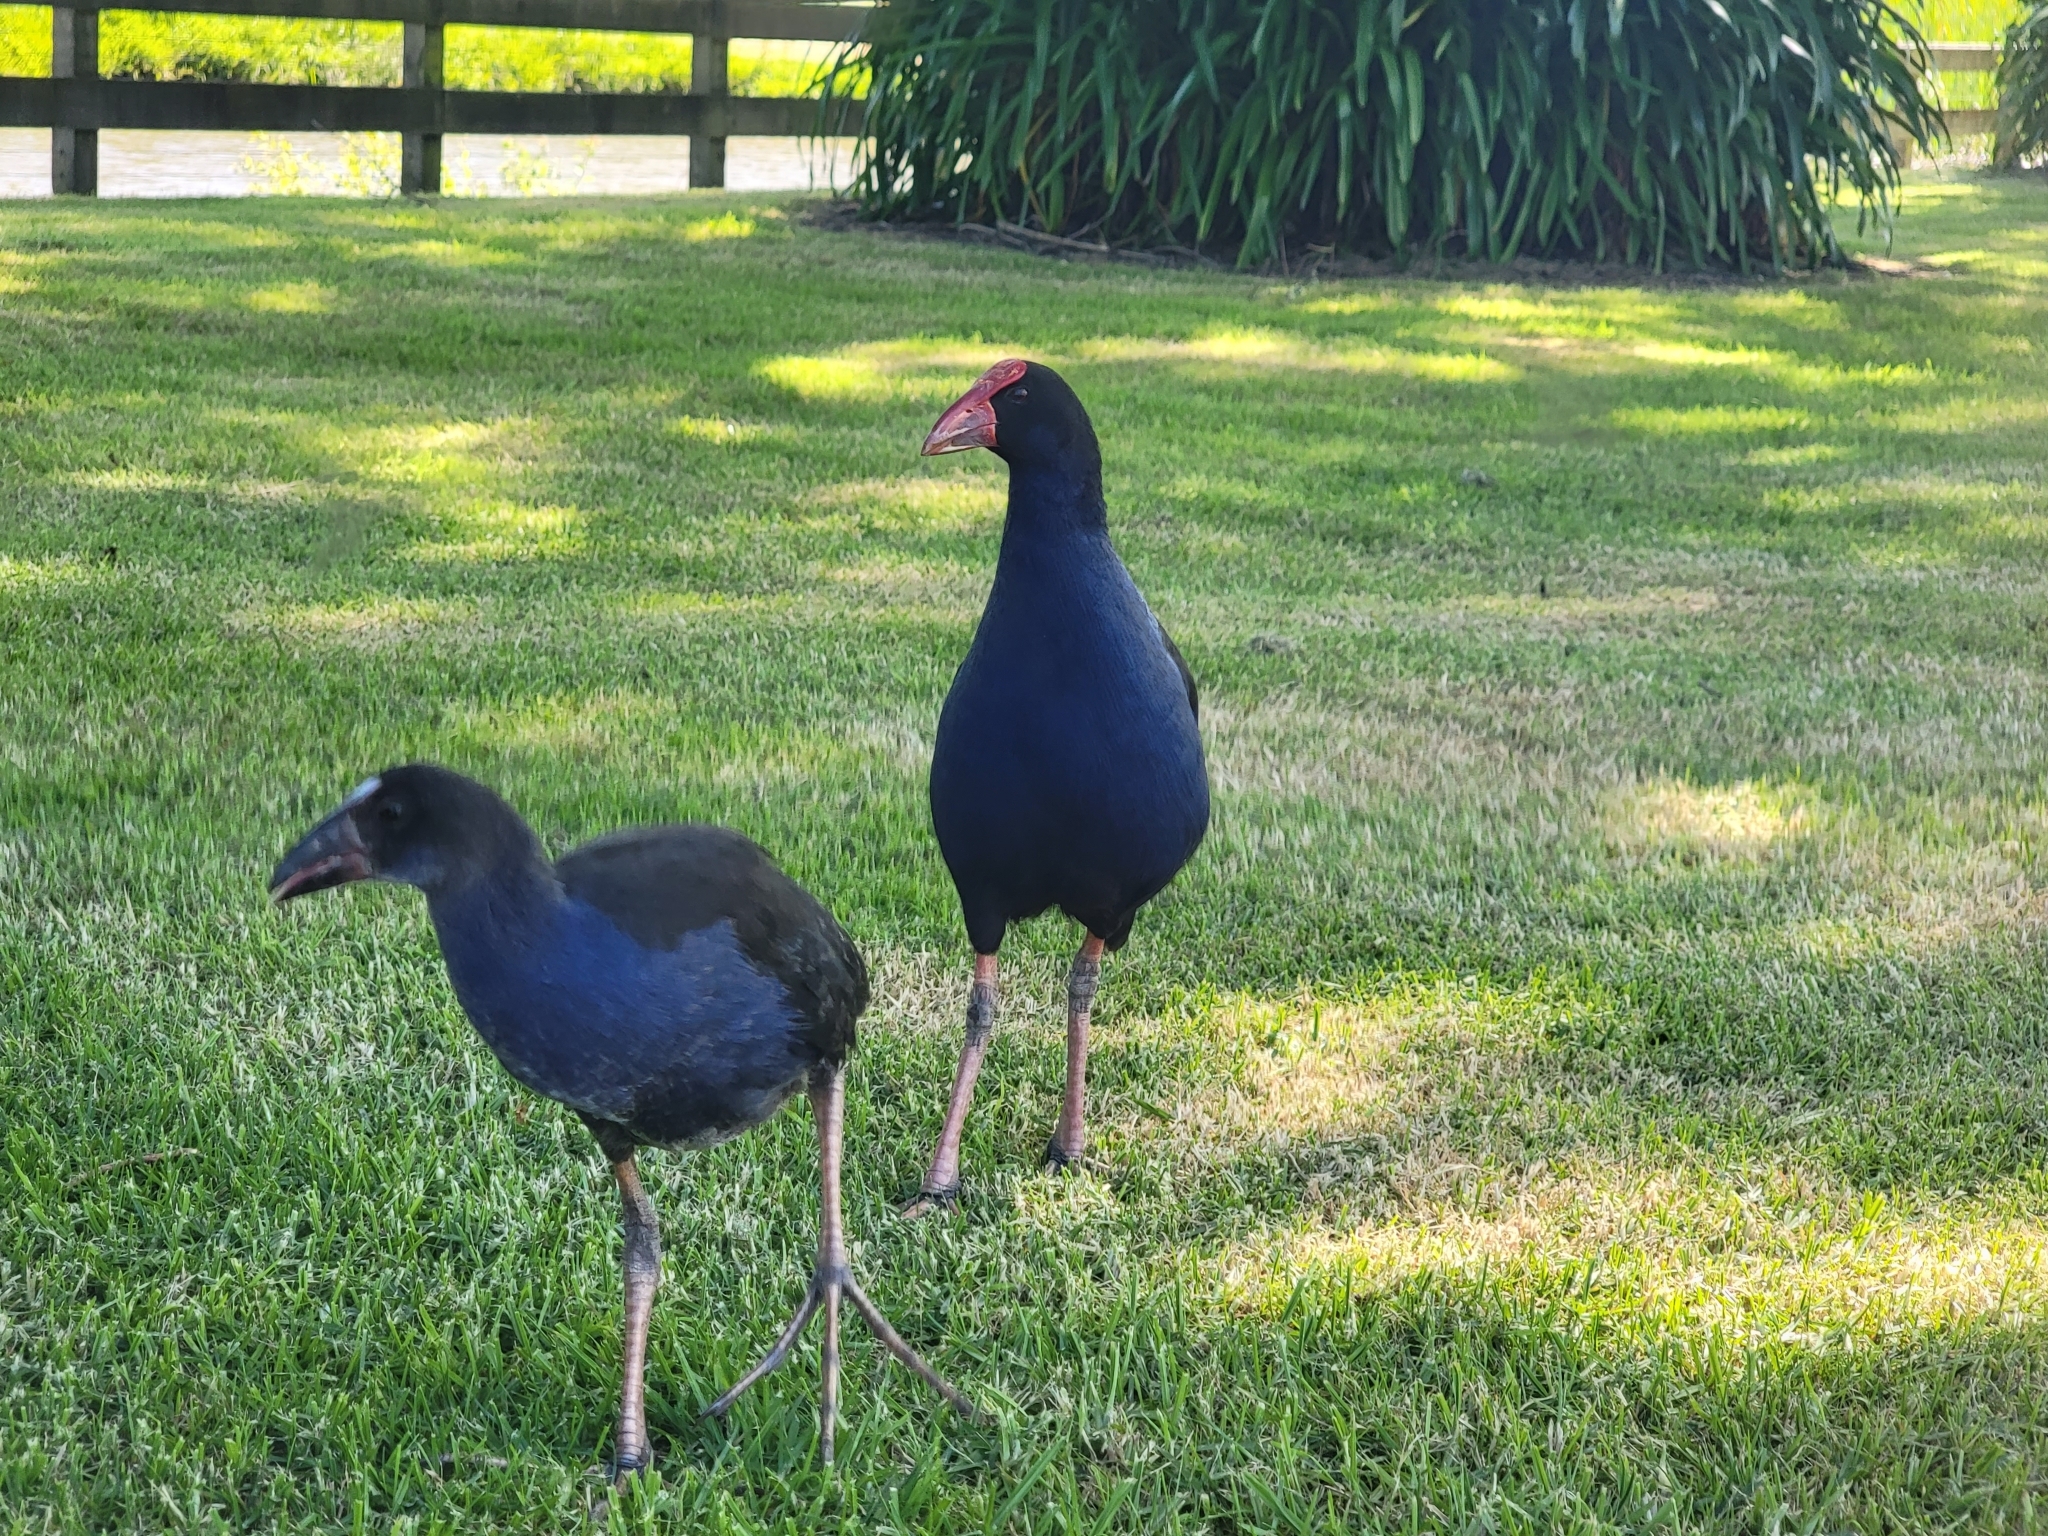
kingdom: Animalia
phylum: Chordata
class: Aves
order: Gruiformes
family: Rallidae
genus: Porphyrio
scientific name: Porphyrio melanotus
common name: Australasian swamphen
